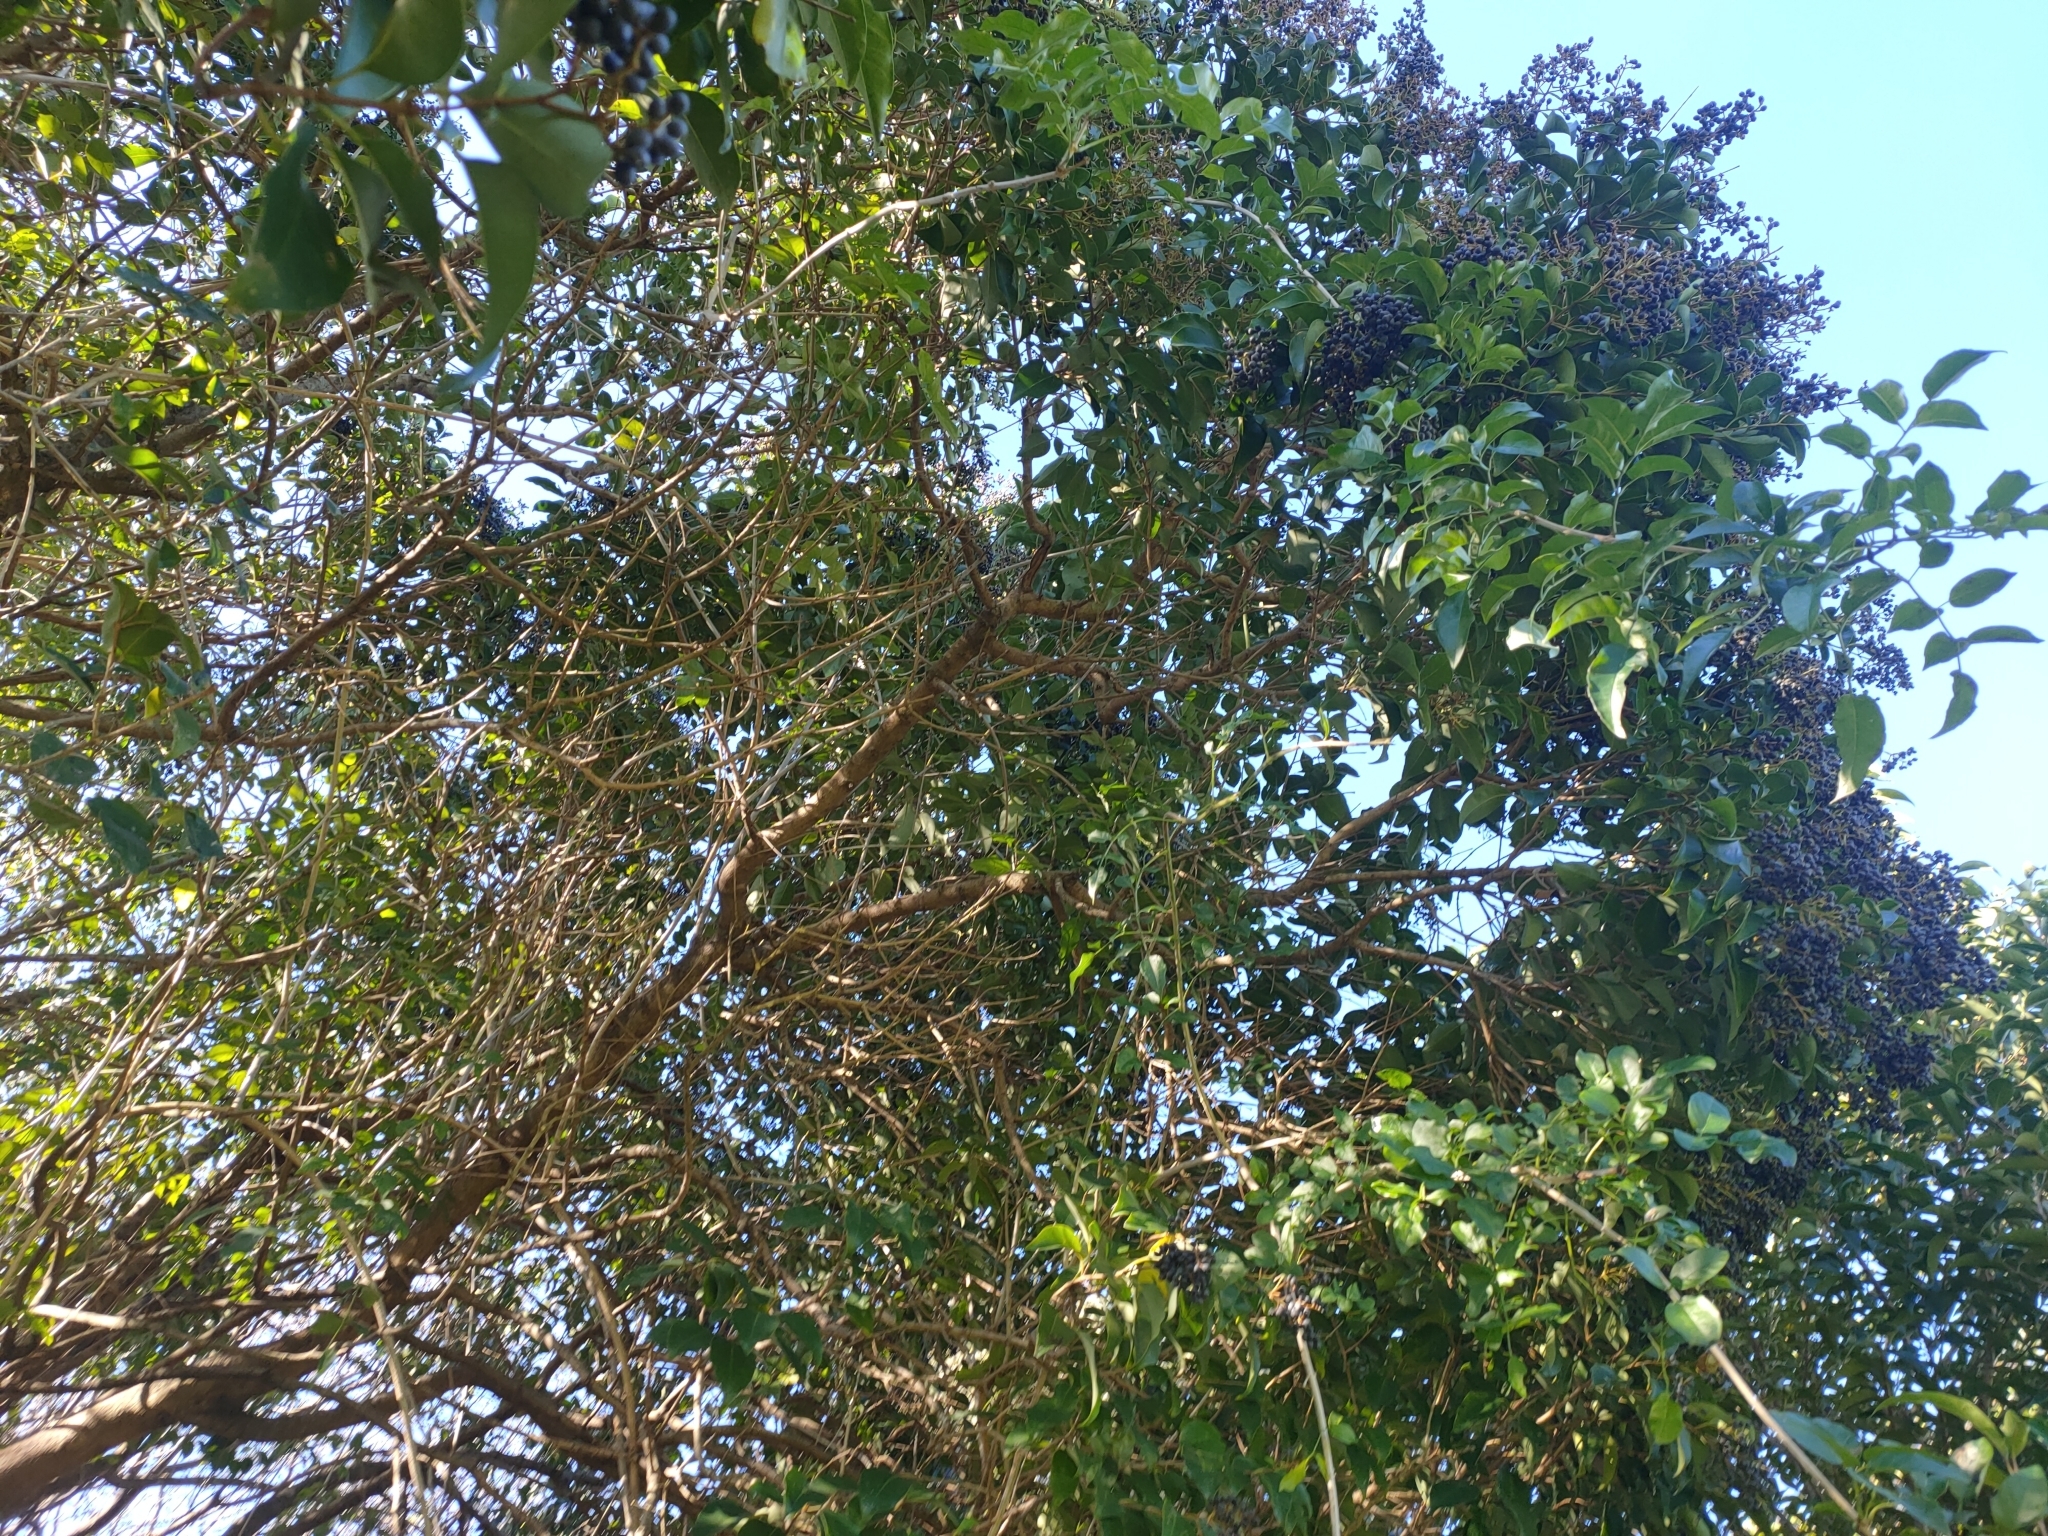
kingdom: Animalia
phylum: Chordata
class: Aves
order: Passeriformes
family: Oriolidae
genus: Sphecotheres
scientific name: Sphecotheres vieilloti
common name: Australasian figbird
